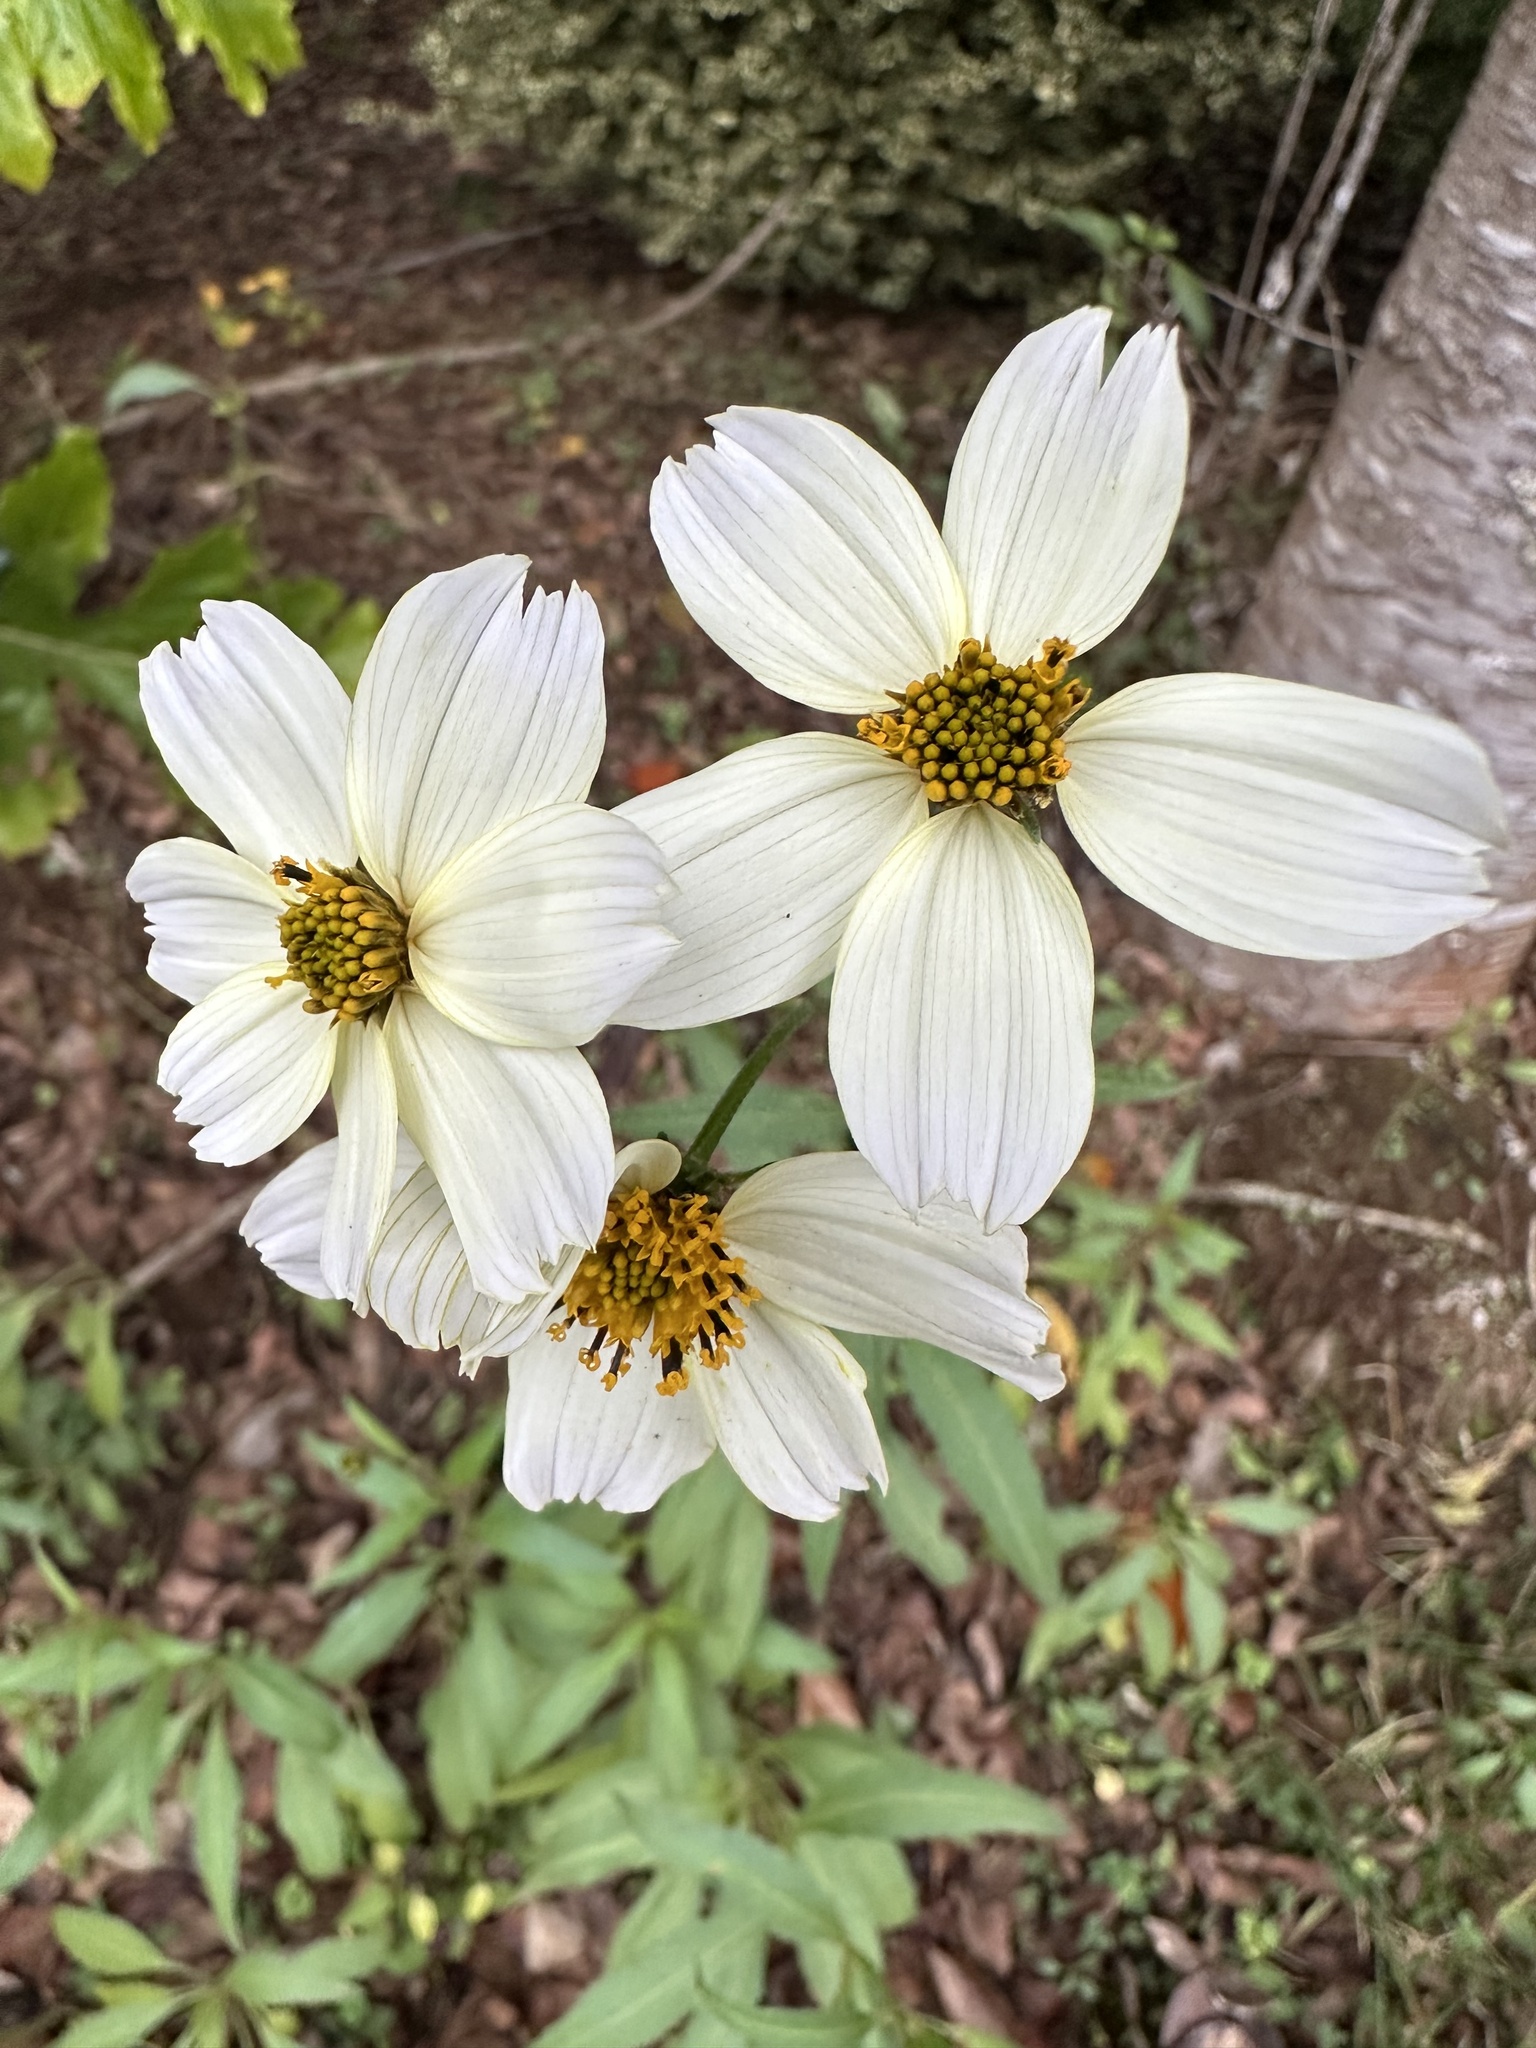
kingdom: Plantae
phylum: Tracheophyta
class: Magnoliopsida
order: Asterales
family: Asteraceae
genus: Bidens
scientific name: Bidens aurea
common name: Arizona beggar-ticks
